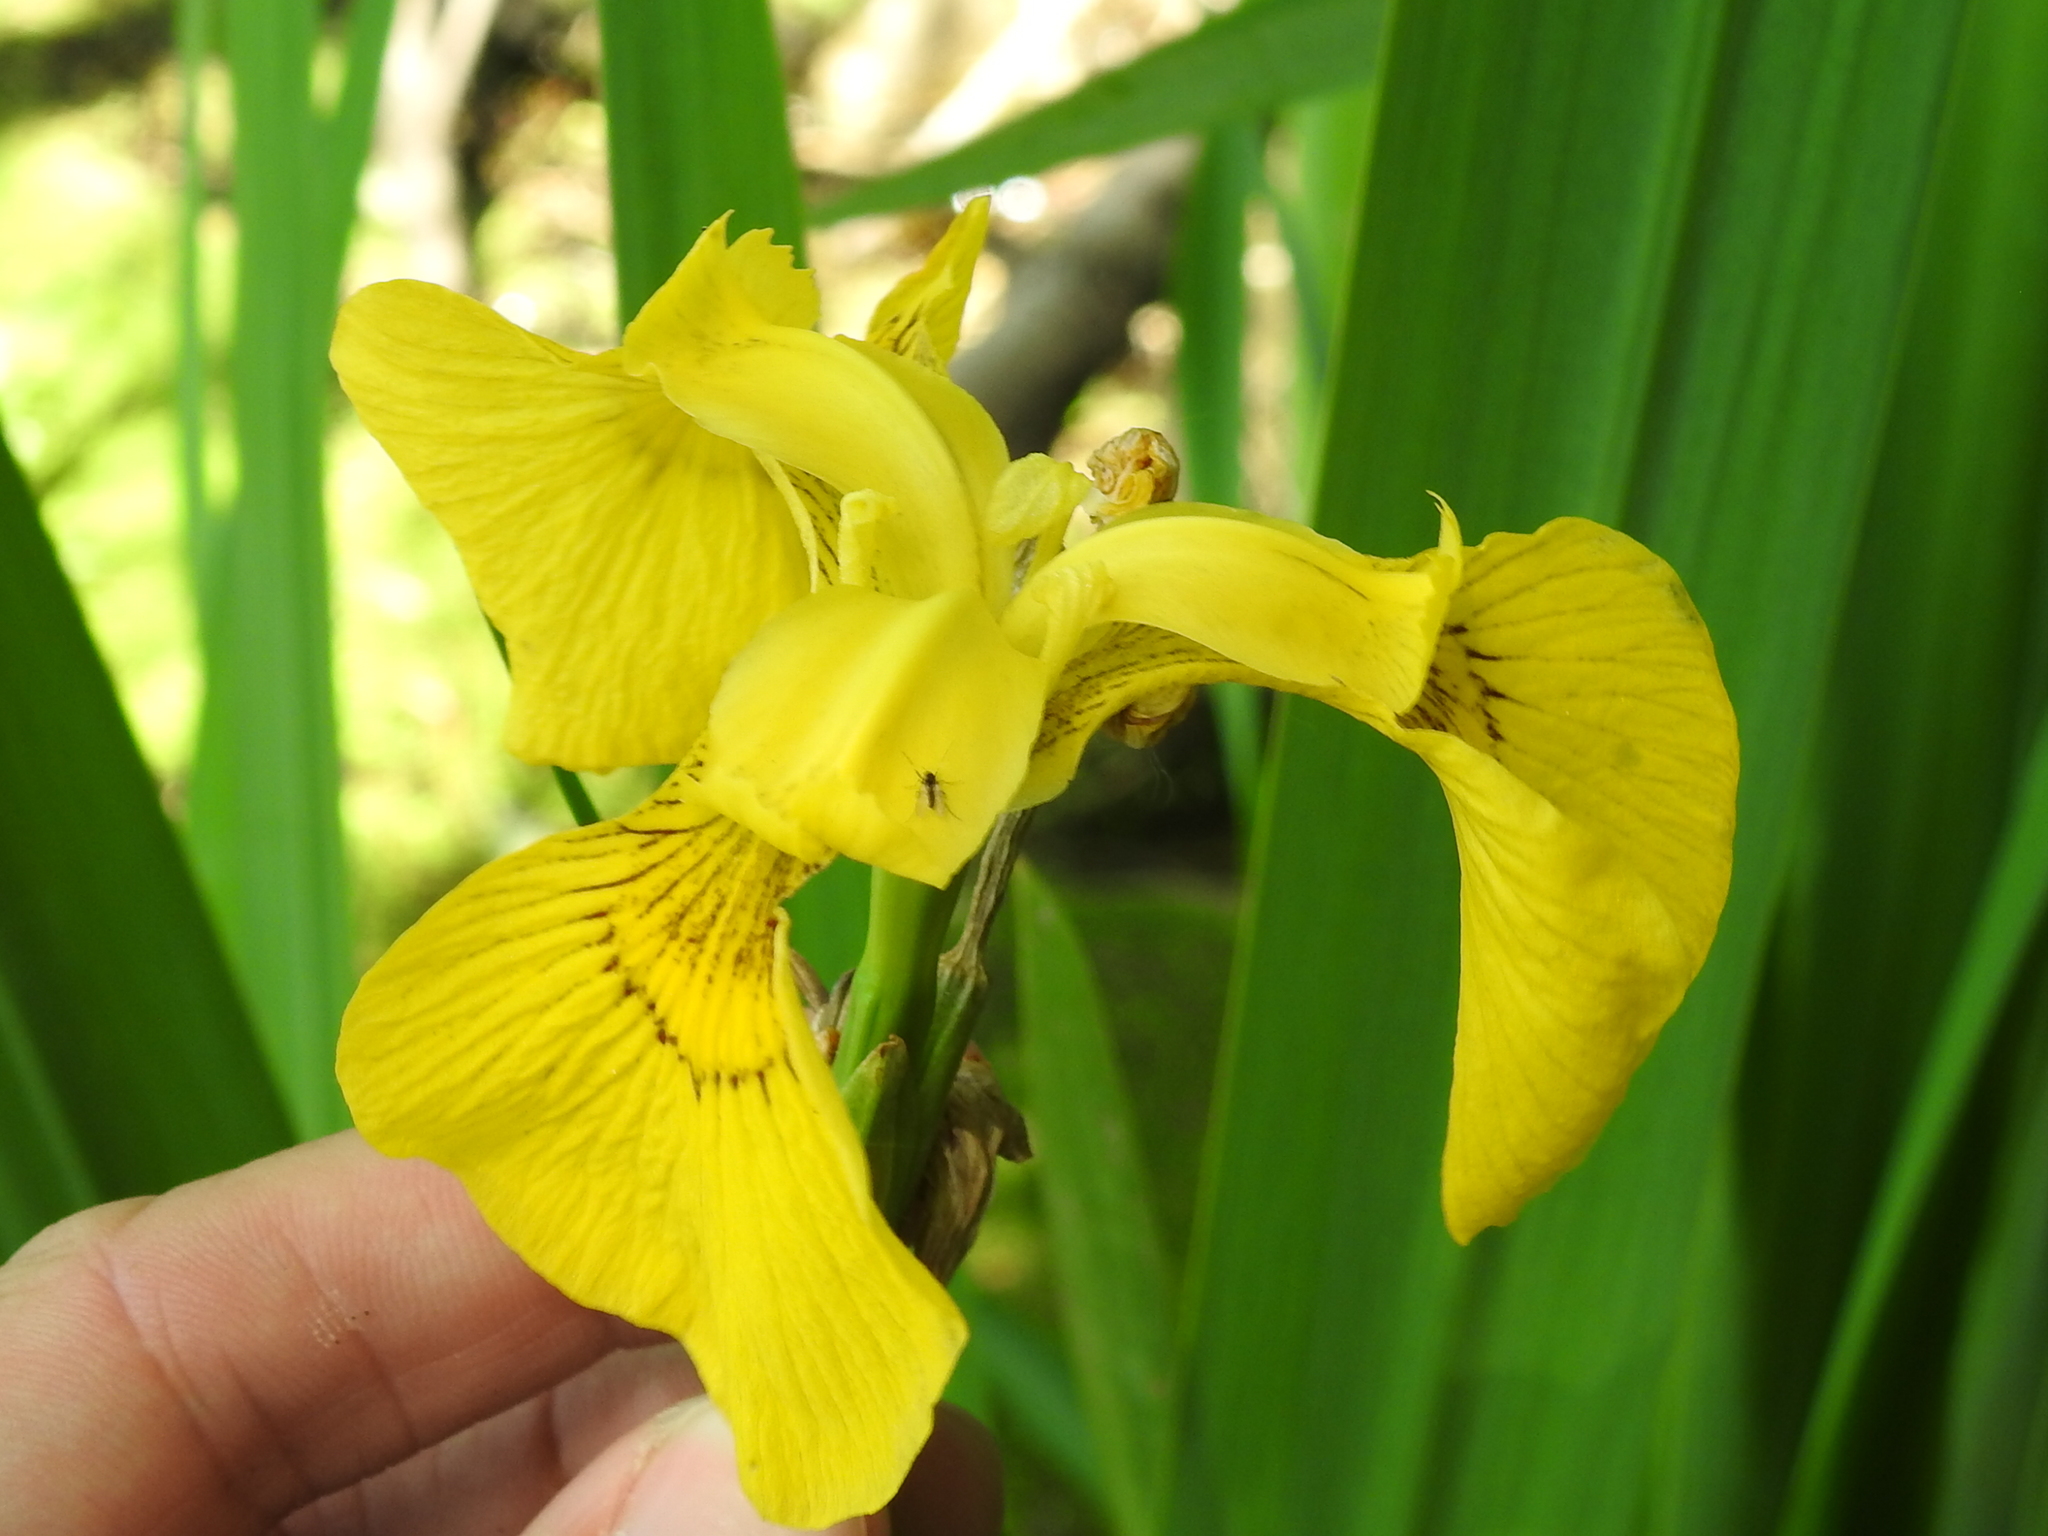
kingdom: Plantae
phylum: Tracheophyta
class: Liliopsida
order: Asparagales
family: Iridaceae
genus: Iris
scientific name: Iris pseudacorus
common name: Yellow flag
